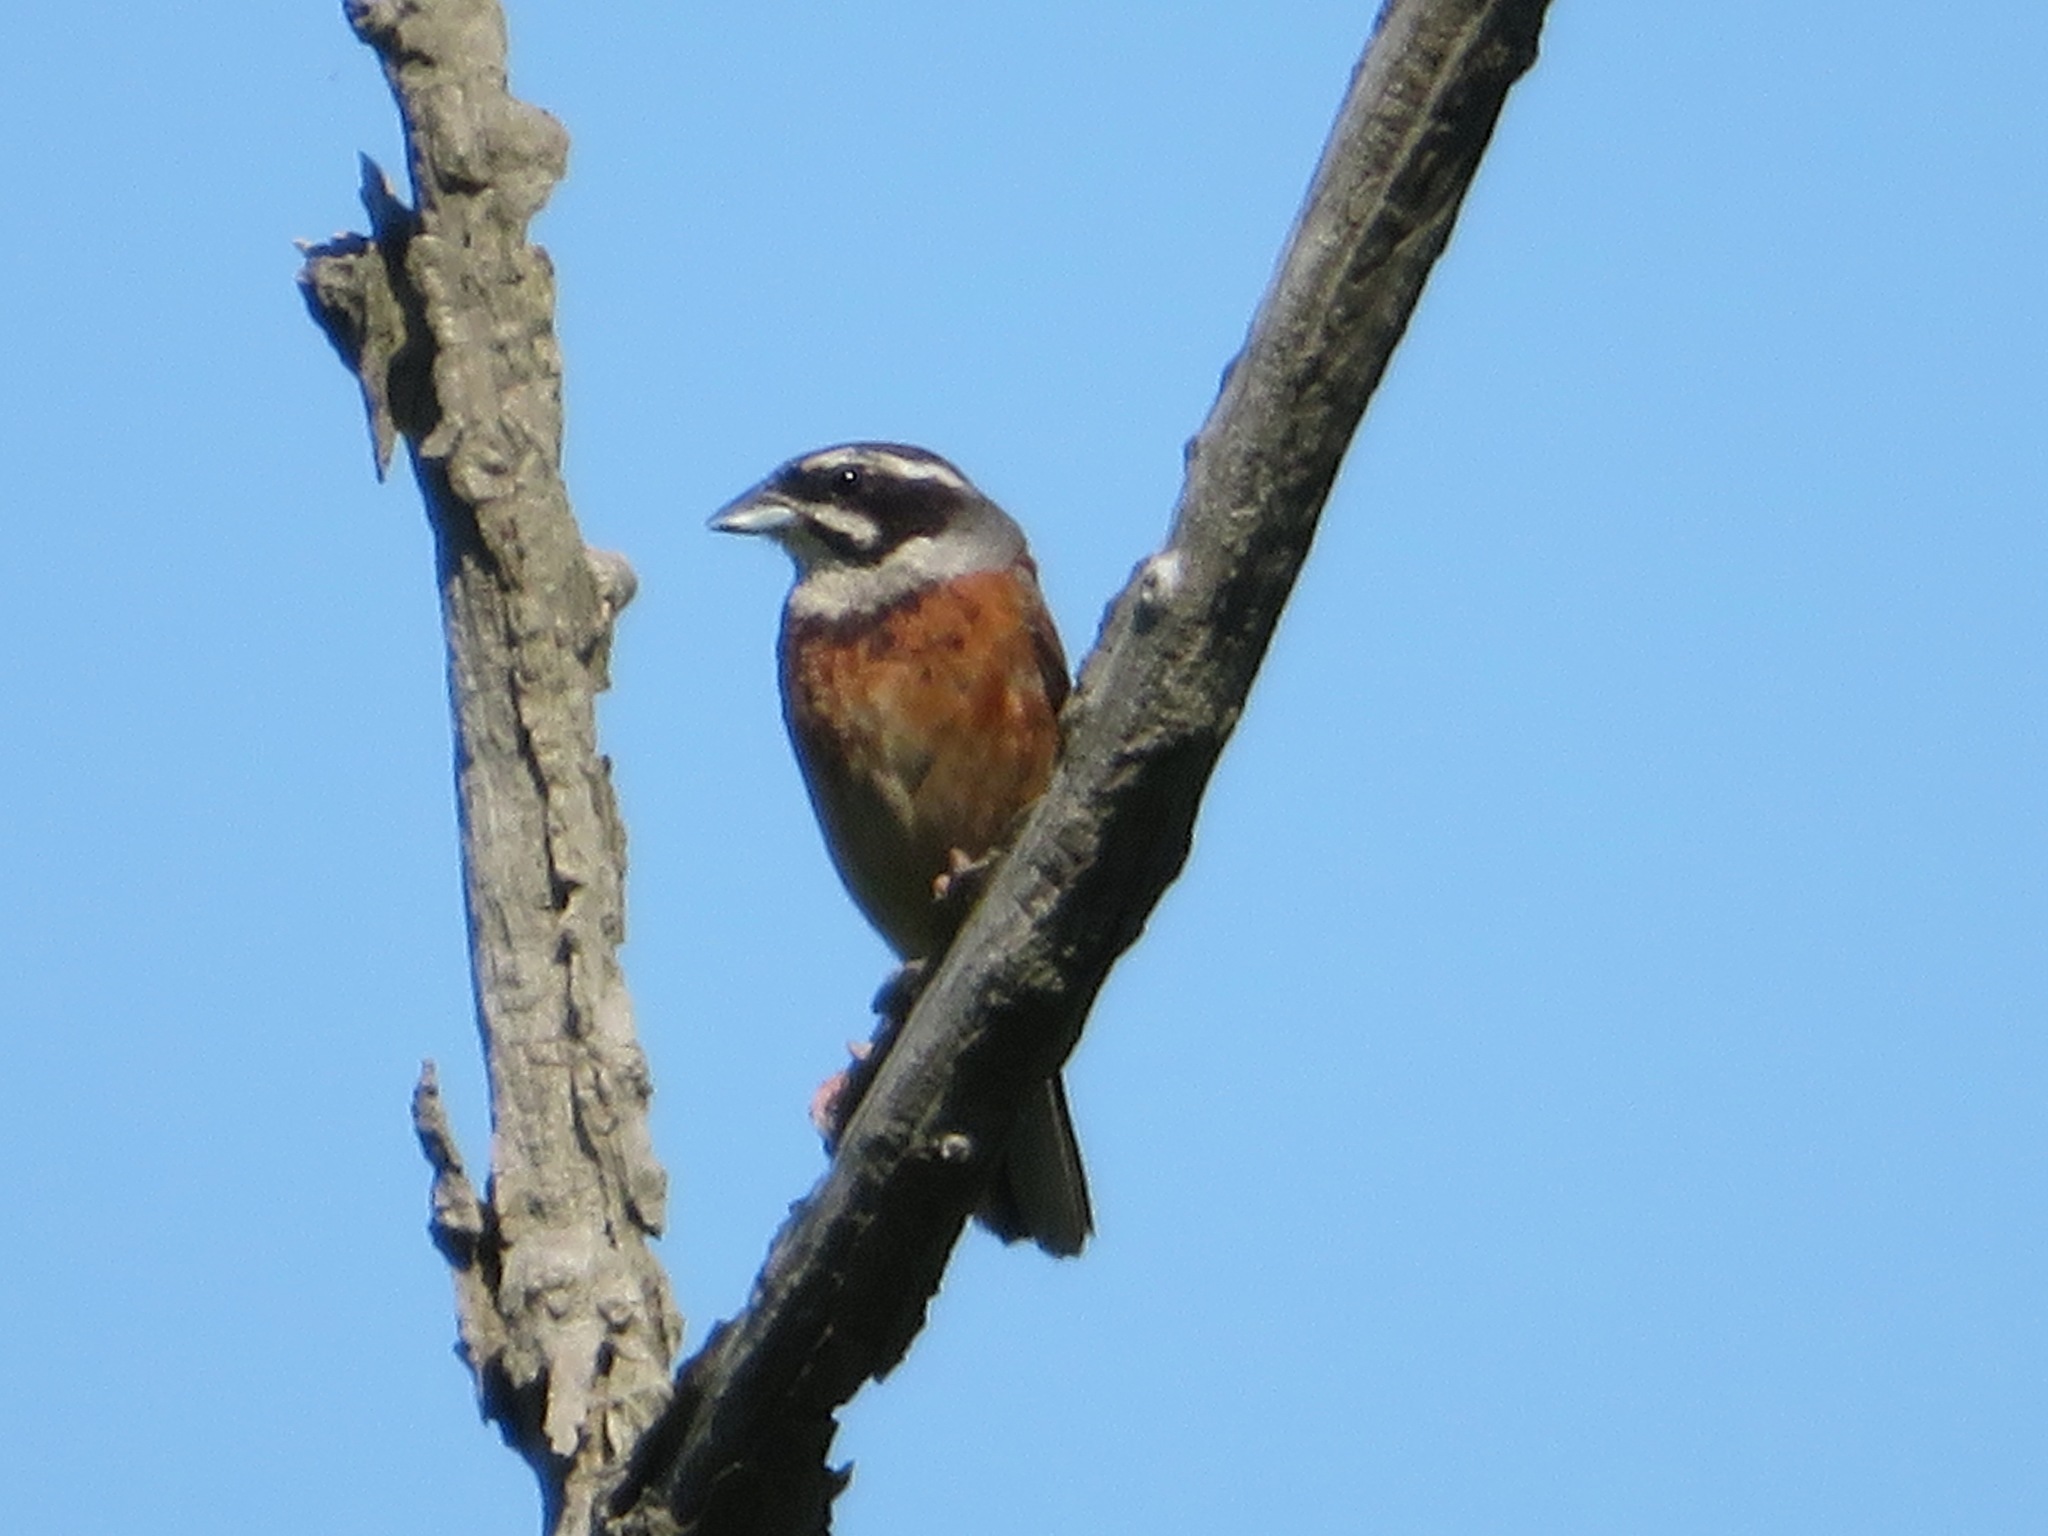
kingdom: Animalia
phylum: Chordata
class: Aves
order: Passeriformes
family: Emberizidae
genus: Emberiza
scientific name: Emberiza cioides
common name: Meadow bunting
